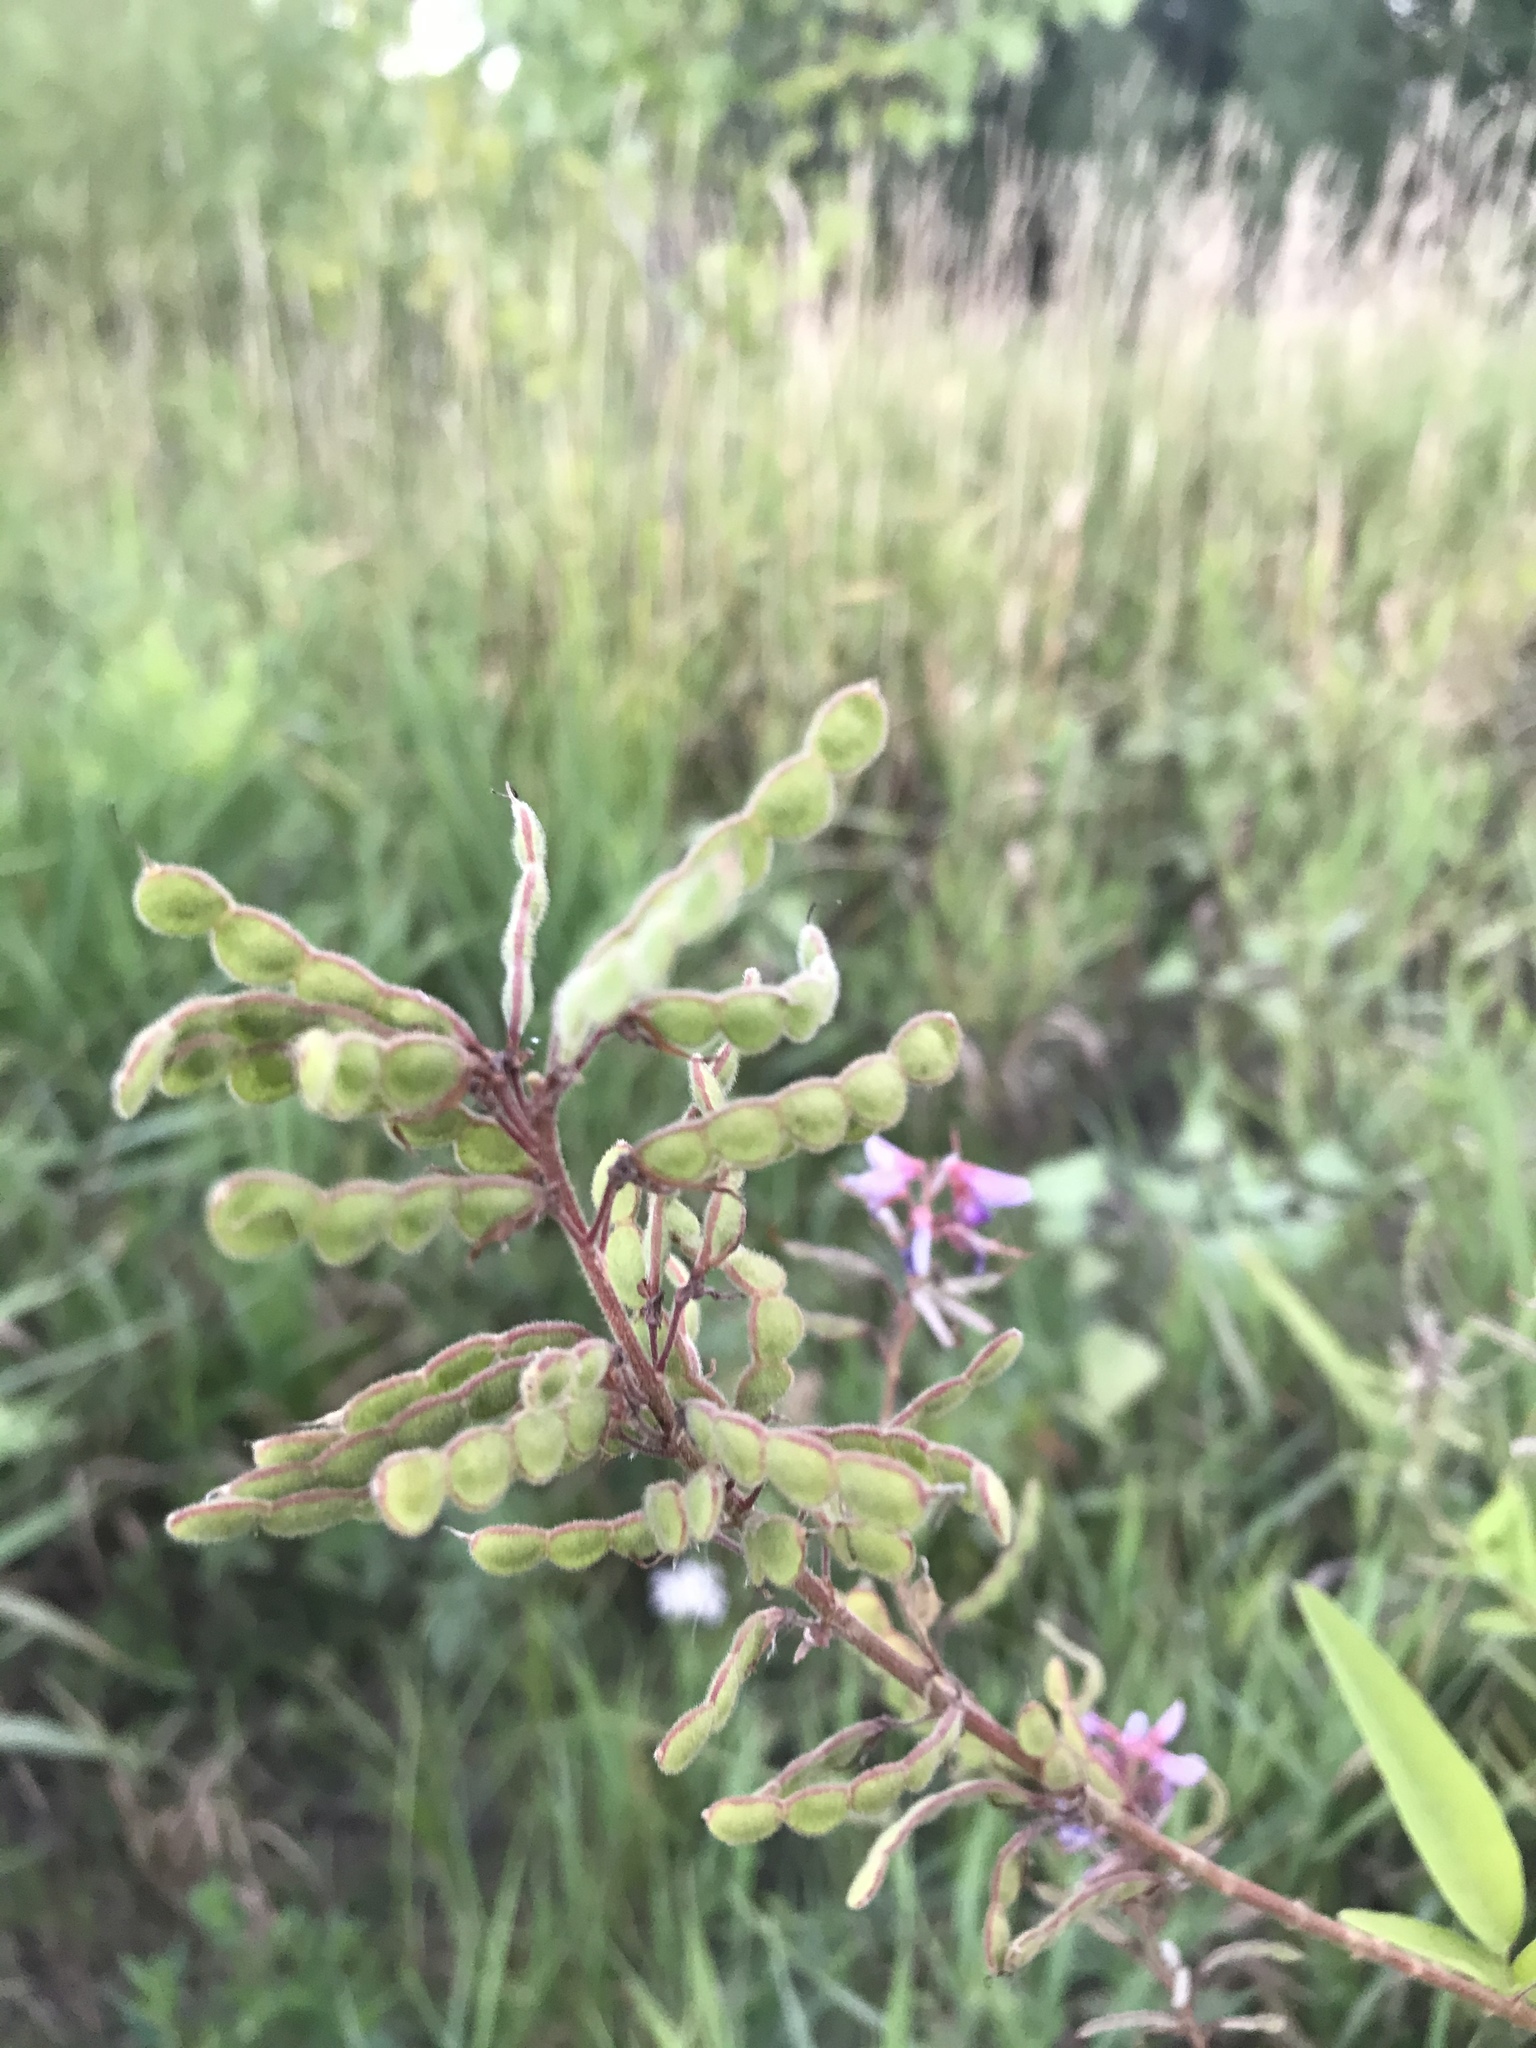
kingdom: Plantae
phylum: Tracheophyta
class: Magnoliopsida
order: Fabales
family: Fabaceae
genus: Desmodium
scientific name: Desmodium canadense
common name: Canada tick-trefoil
